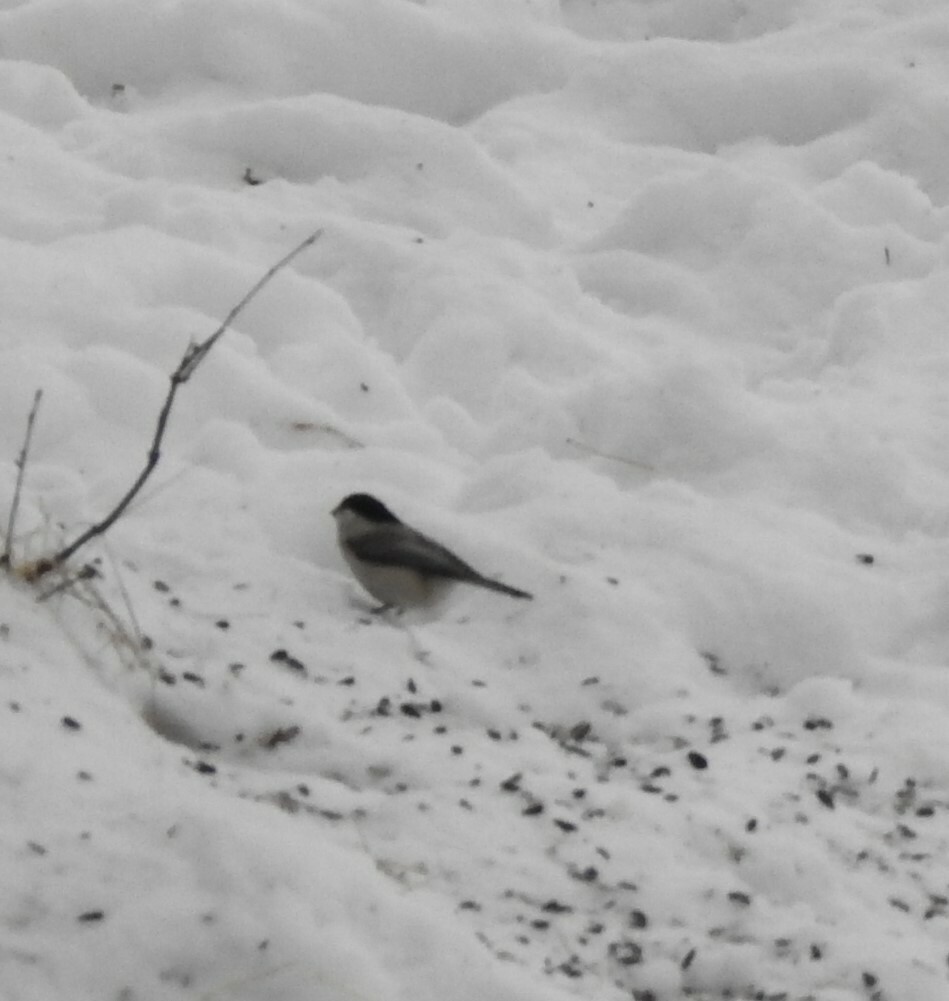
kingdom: Animalia
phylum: Chordata
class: Aves
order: Passeriformes
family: Paridae
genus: Poecile
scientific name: Poecile montanus
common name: Willow tit
